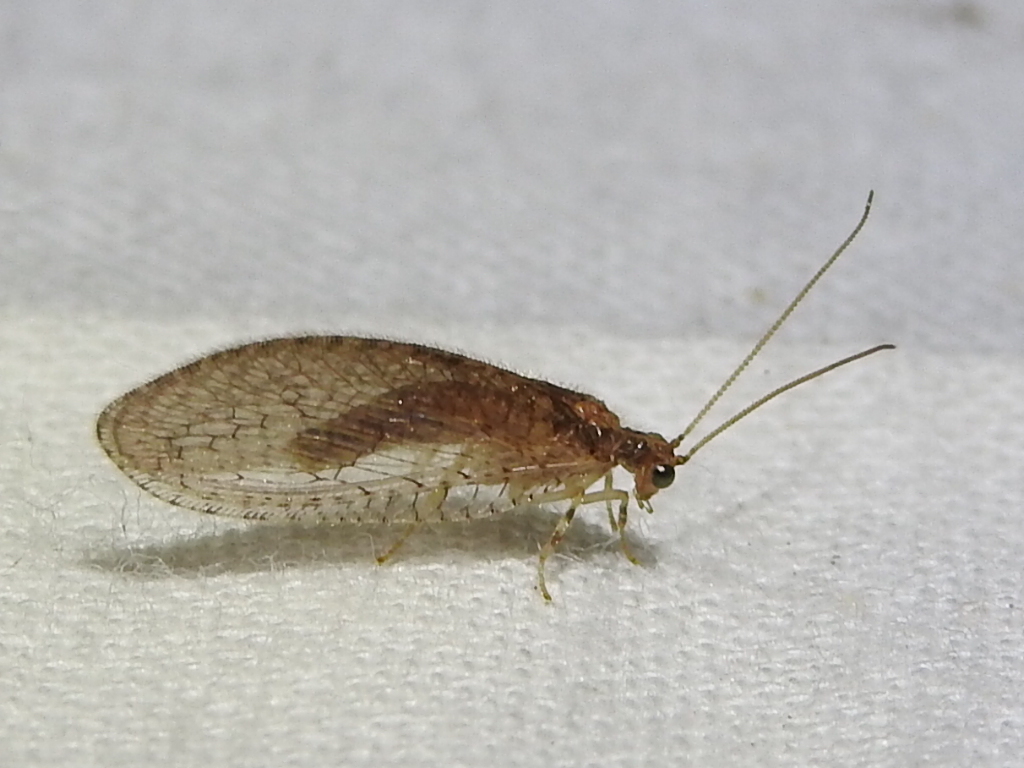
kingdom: Animalia
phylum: Arthropoda
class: Insecta
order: Neuroptera
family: Hemerobiidae
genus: Micromus
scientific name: Micromus posticus
